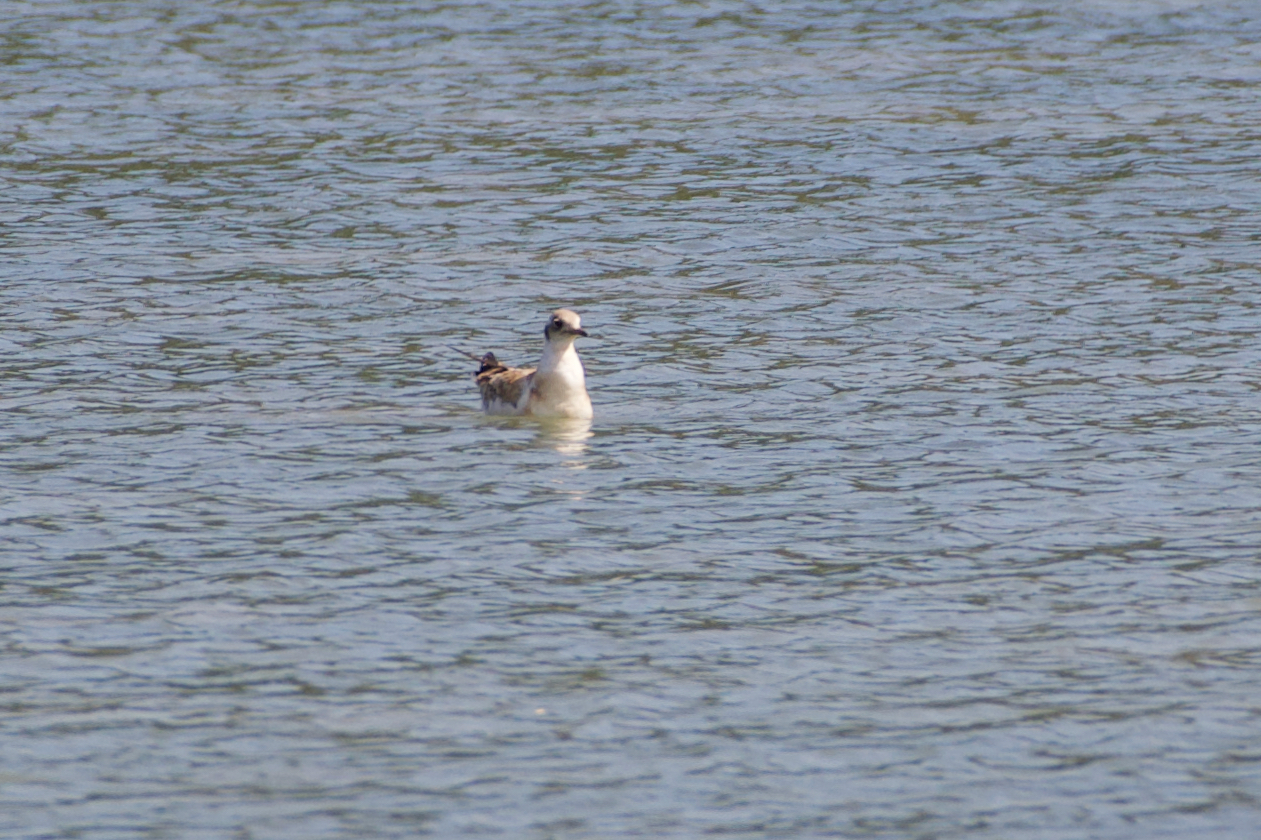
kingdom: Animalia
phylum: Chordata
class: Aves
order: Charadriiformes
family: Laridae
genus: Chroicocephalus
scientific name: Chroicocephalus ridibundus
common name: Black-headed gull
